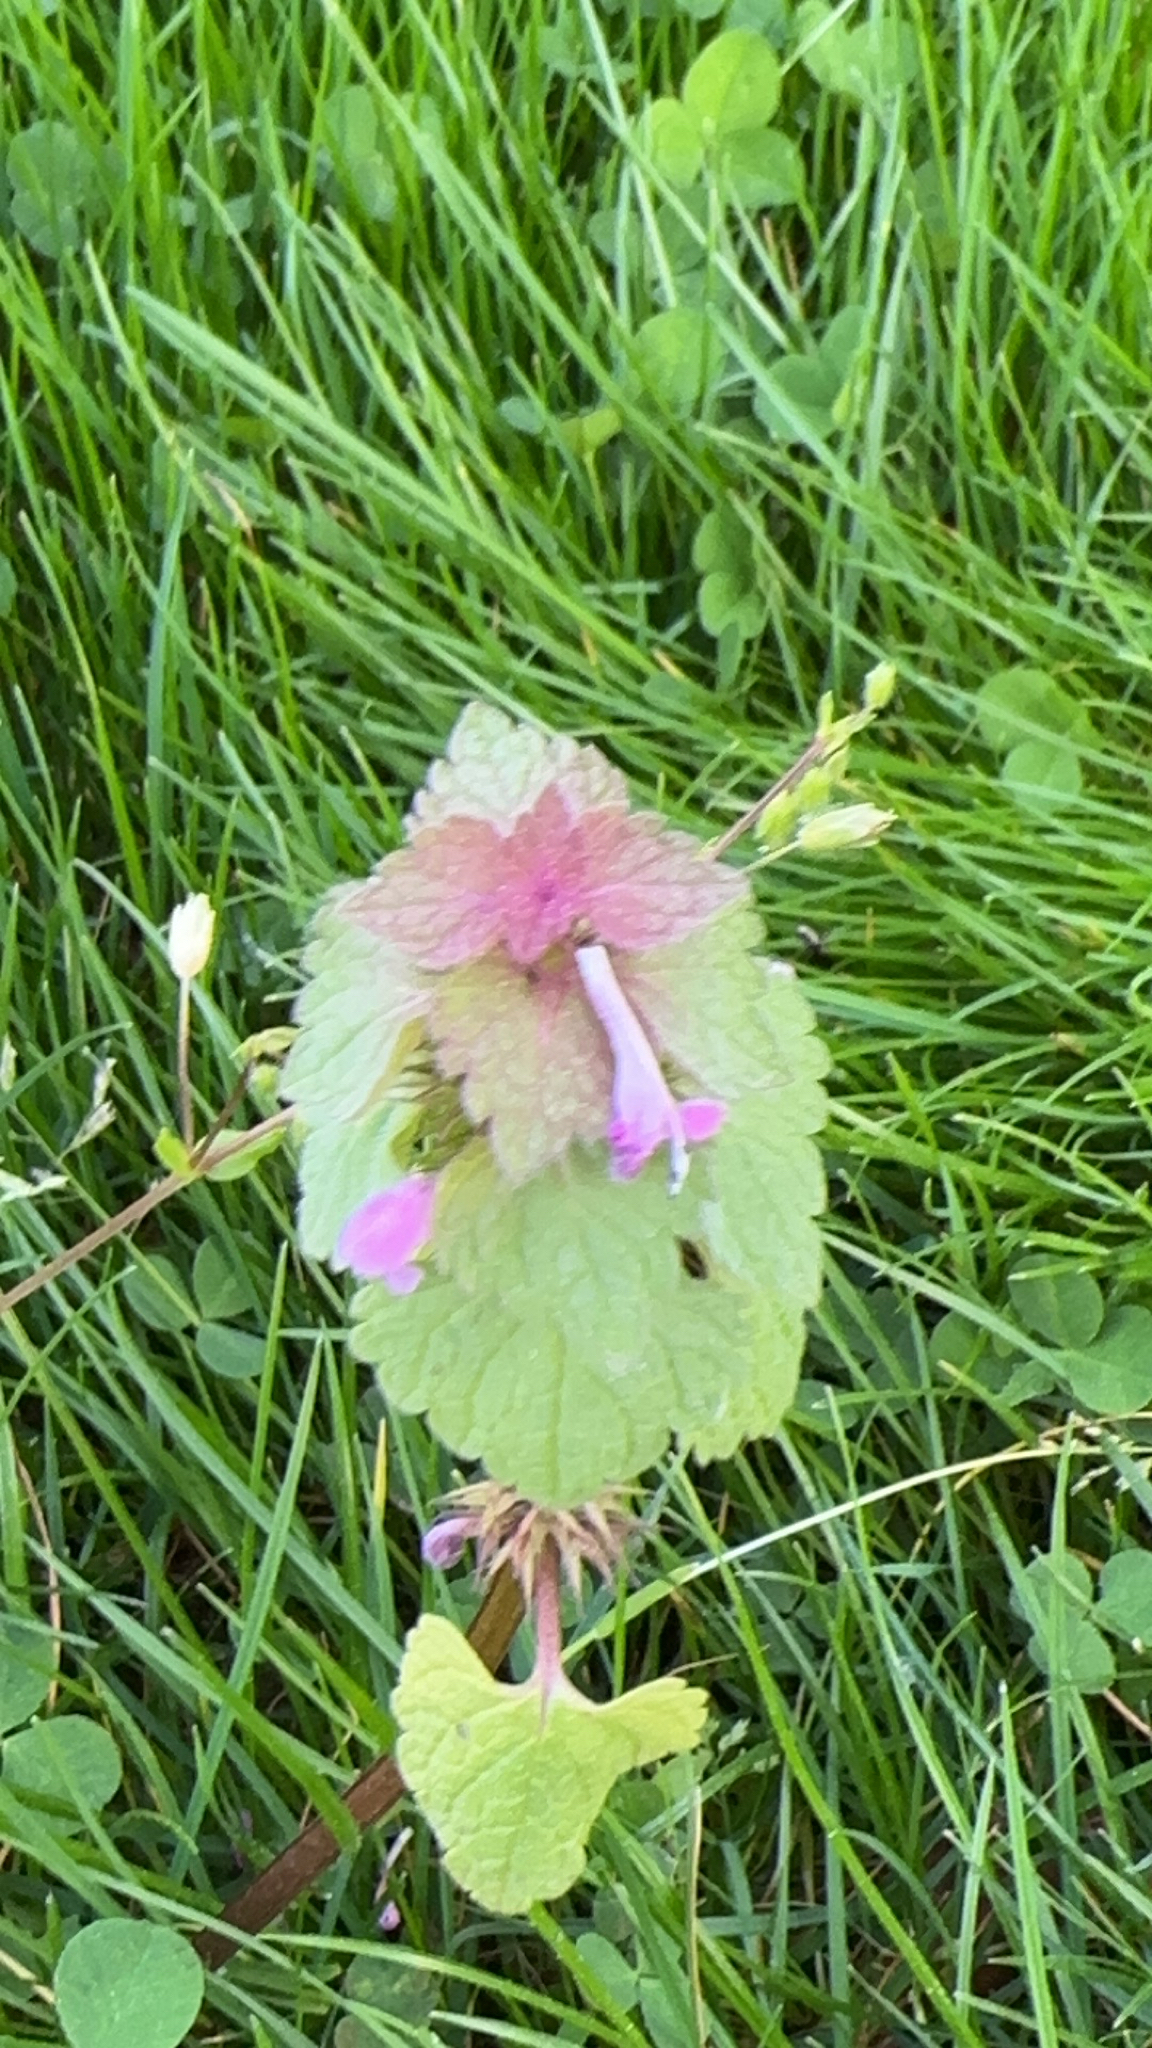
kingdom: Plantae
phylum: Tracheophyta
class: Magnoliopsida
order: Lamiales
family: Lamiaceae
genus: Lamium
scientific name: Lamium purpureum
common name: Red dead-nettle
